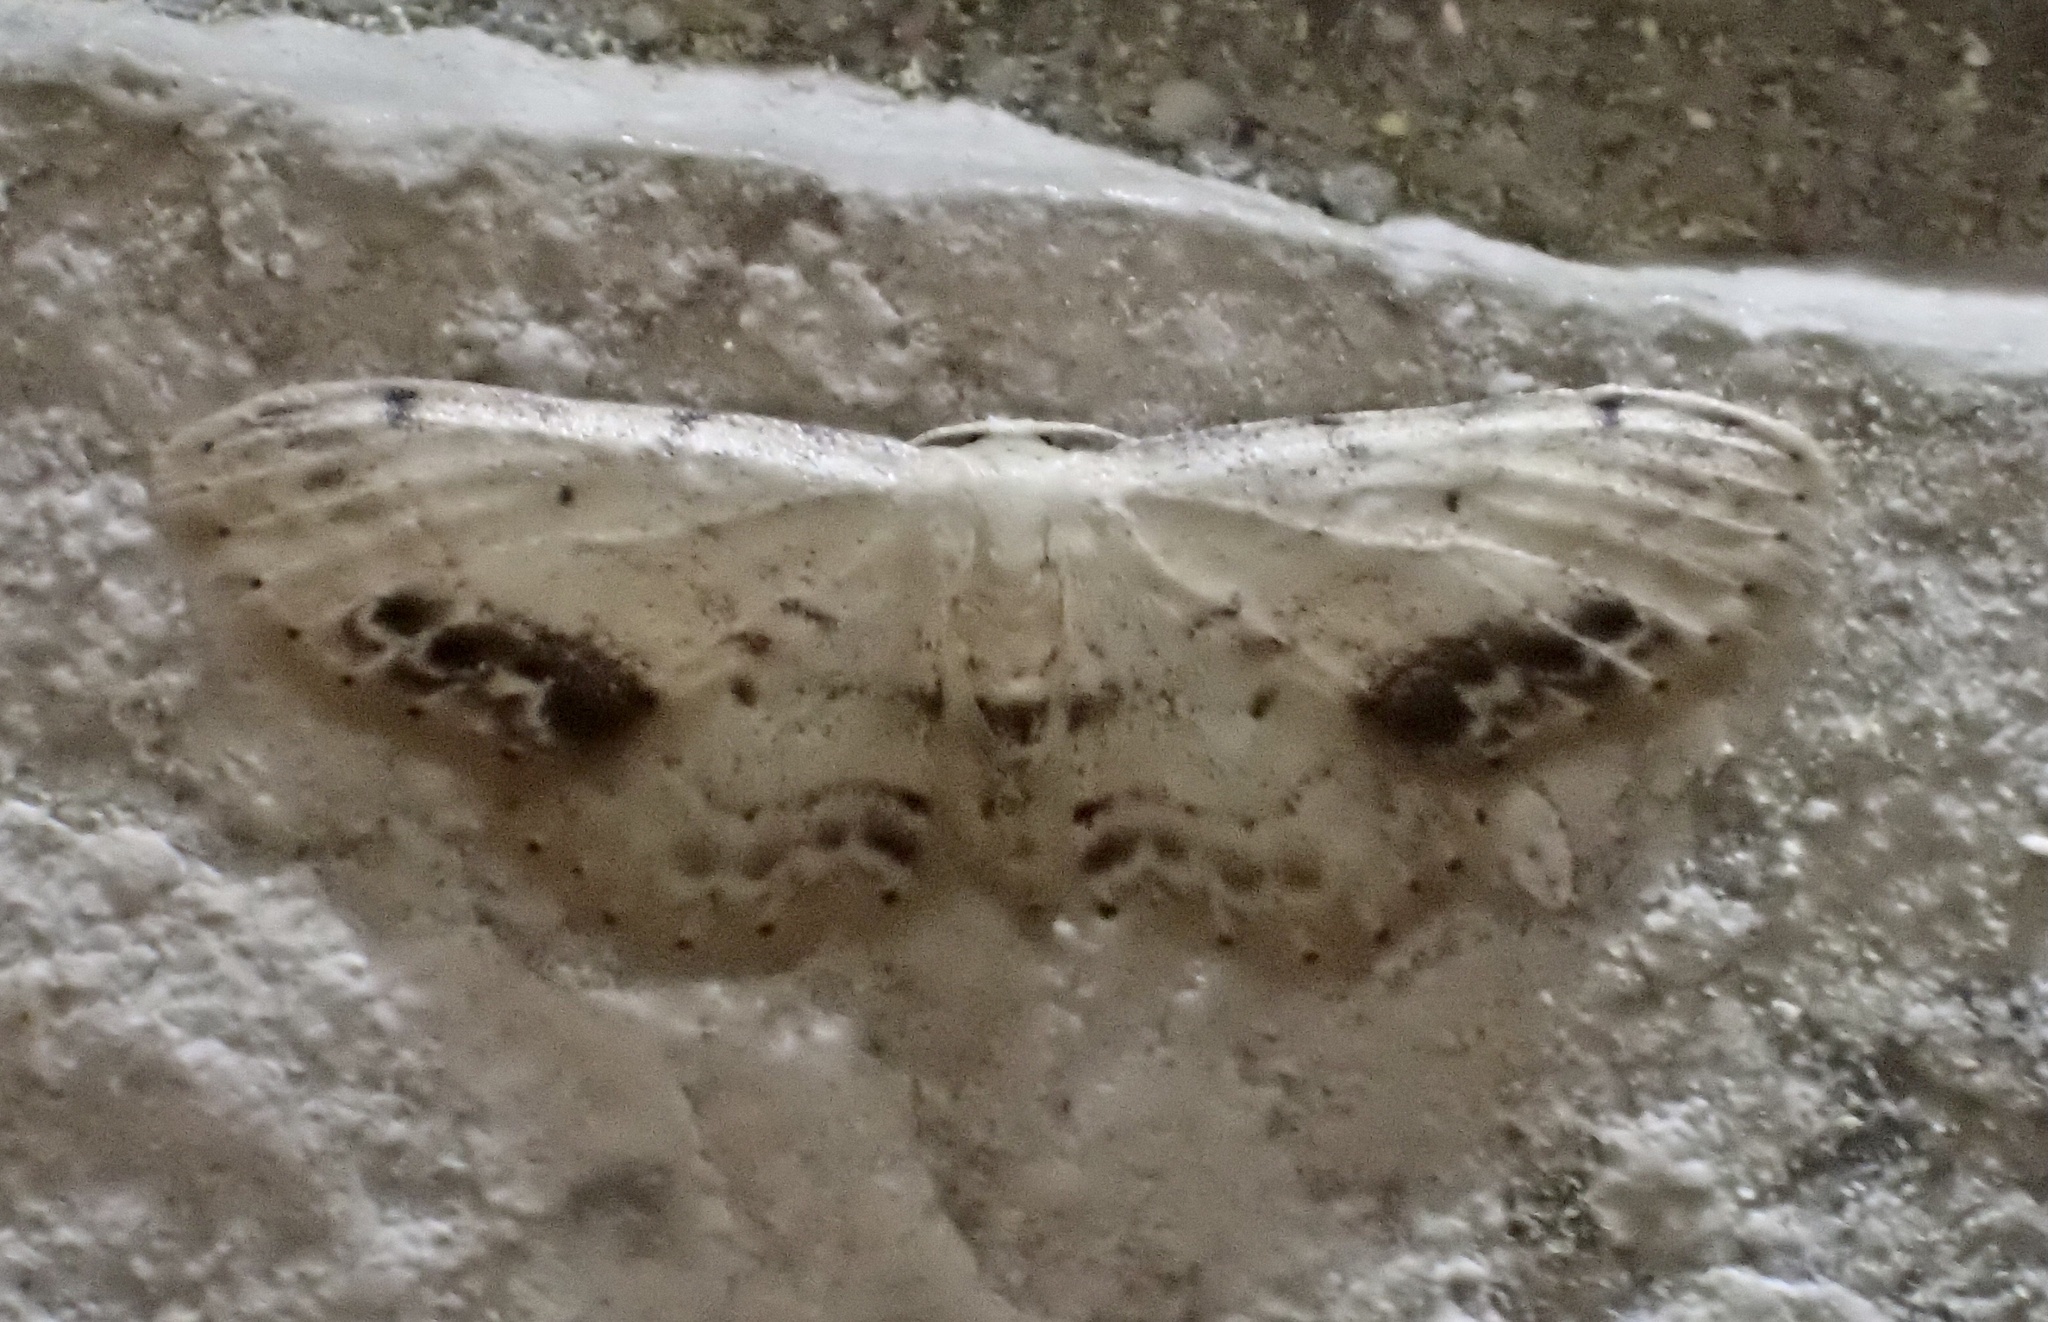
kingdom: Animalia
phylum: Arthropoda
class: Insecta
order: Lepidoptera
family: Geometridae
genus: Idaea
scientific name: Idaea dimidiata
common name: Single-dotted wave
